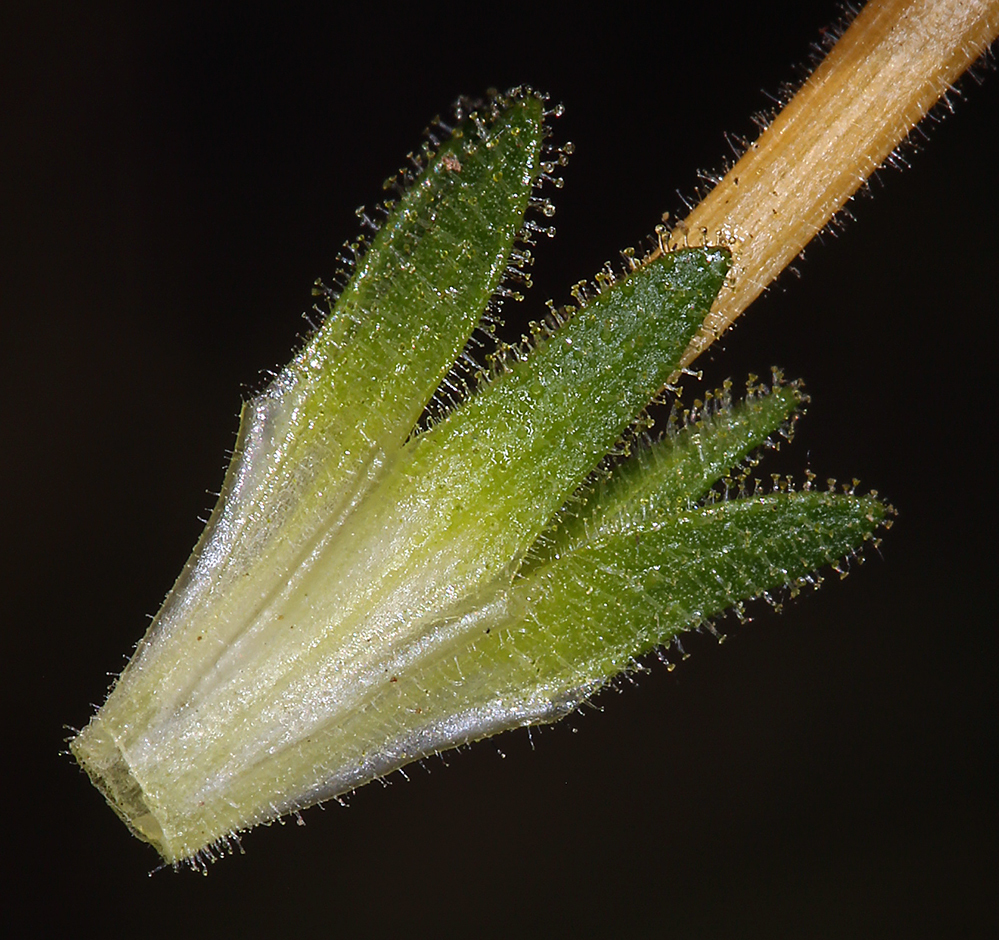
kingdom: Plantae
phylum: Tracheophyta
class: Magnoliopsida
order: Ericales
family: Polemoniaceae
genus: Collomia
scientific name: Collomia grandiflora
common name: California strawflower
